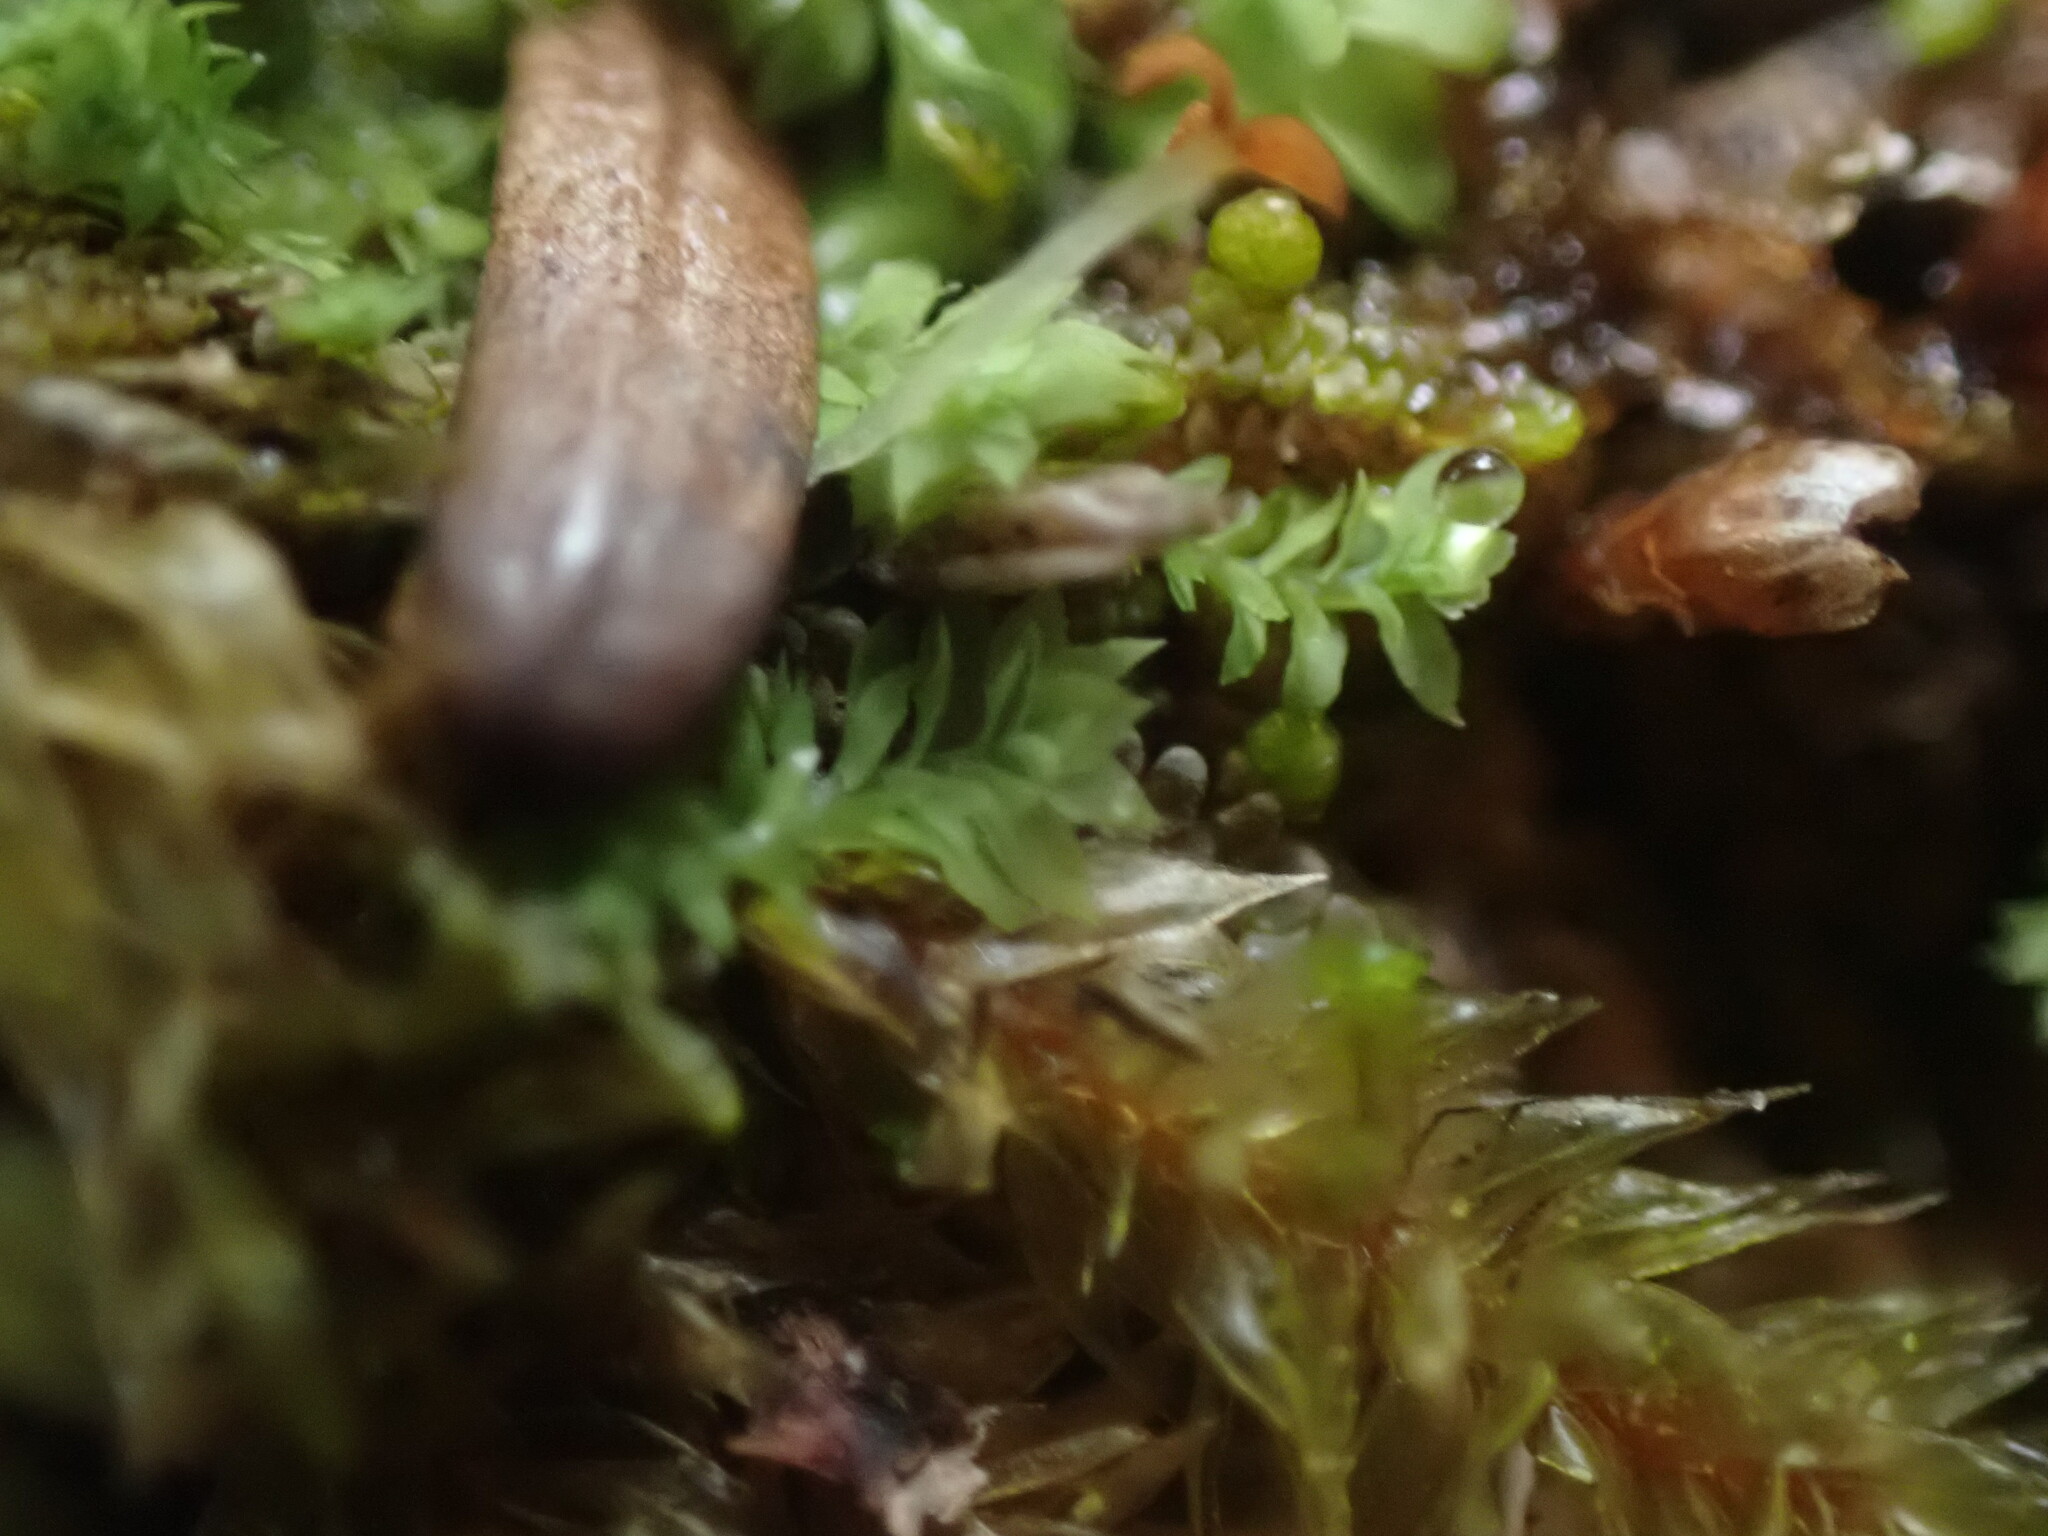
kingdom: Plantae
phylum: Marchantiophyta
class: Jungermanniopsida
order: Jungermanniales
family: Scapaniaceae
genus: Douinia
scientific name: Douinia ovata
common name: Waxy earwort
